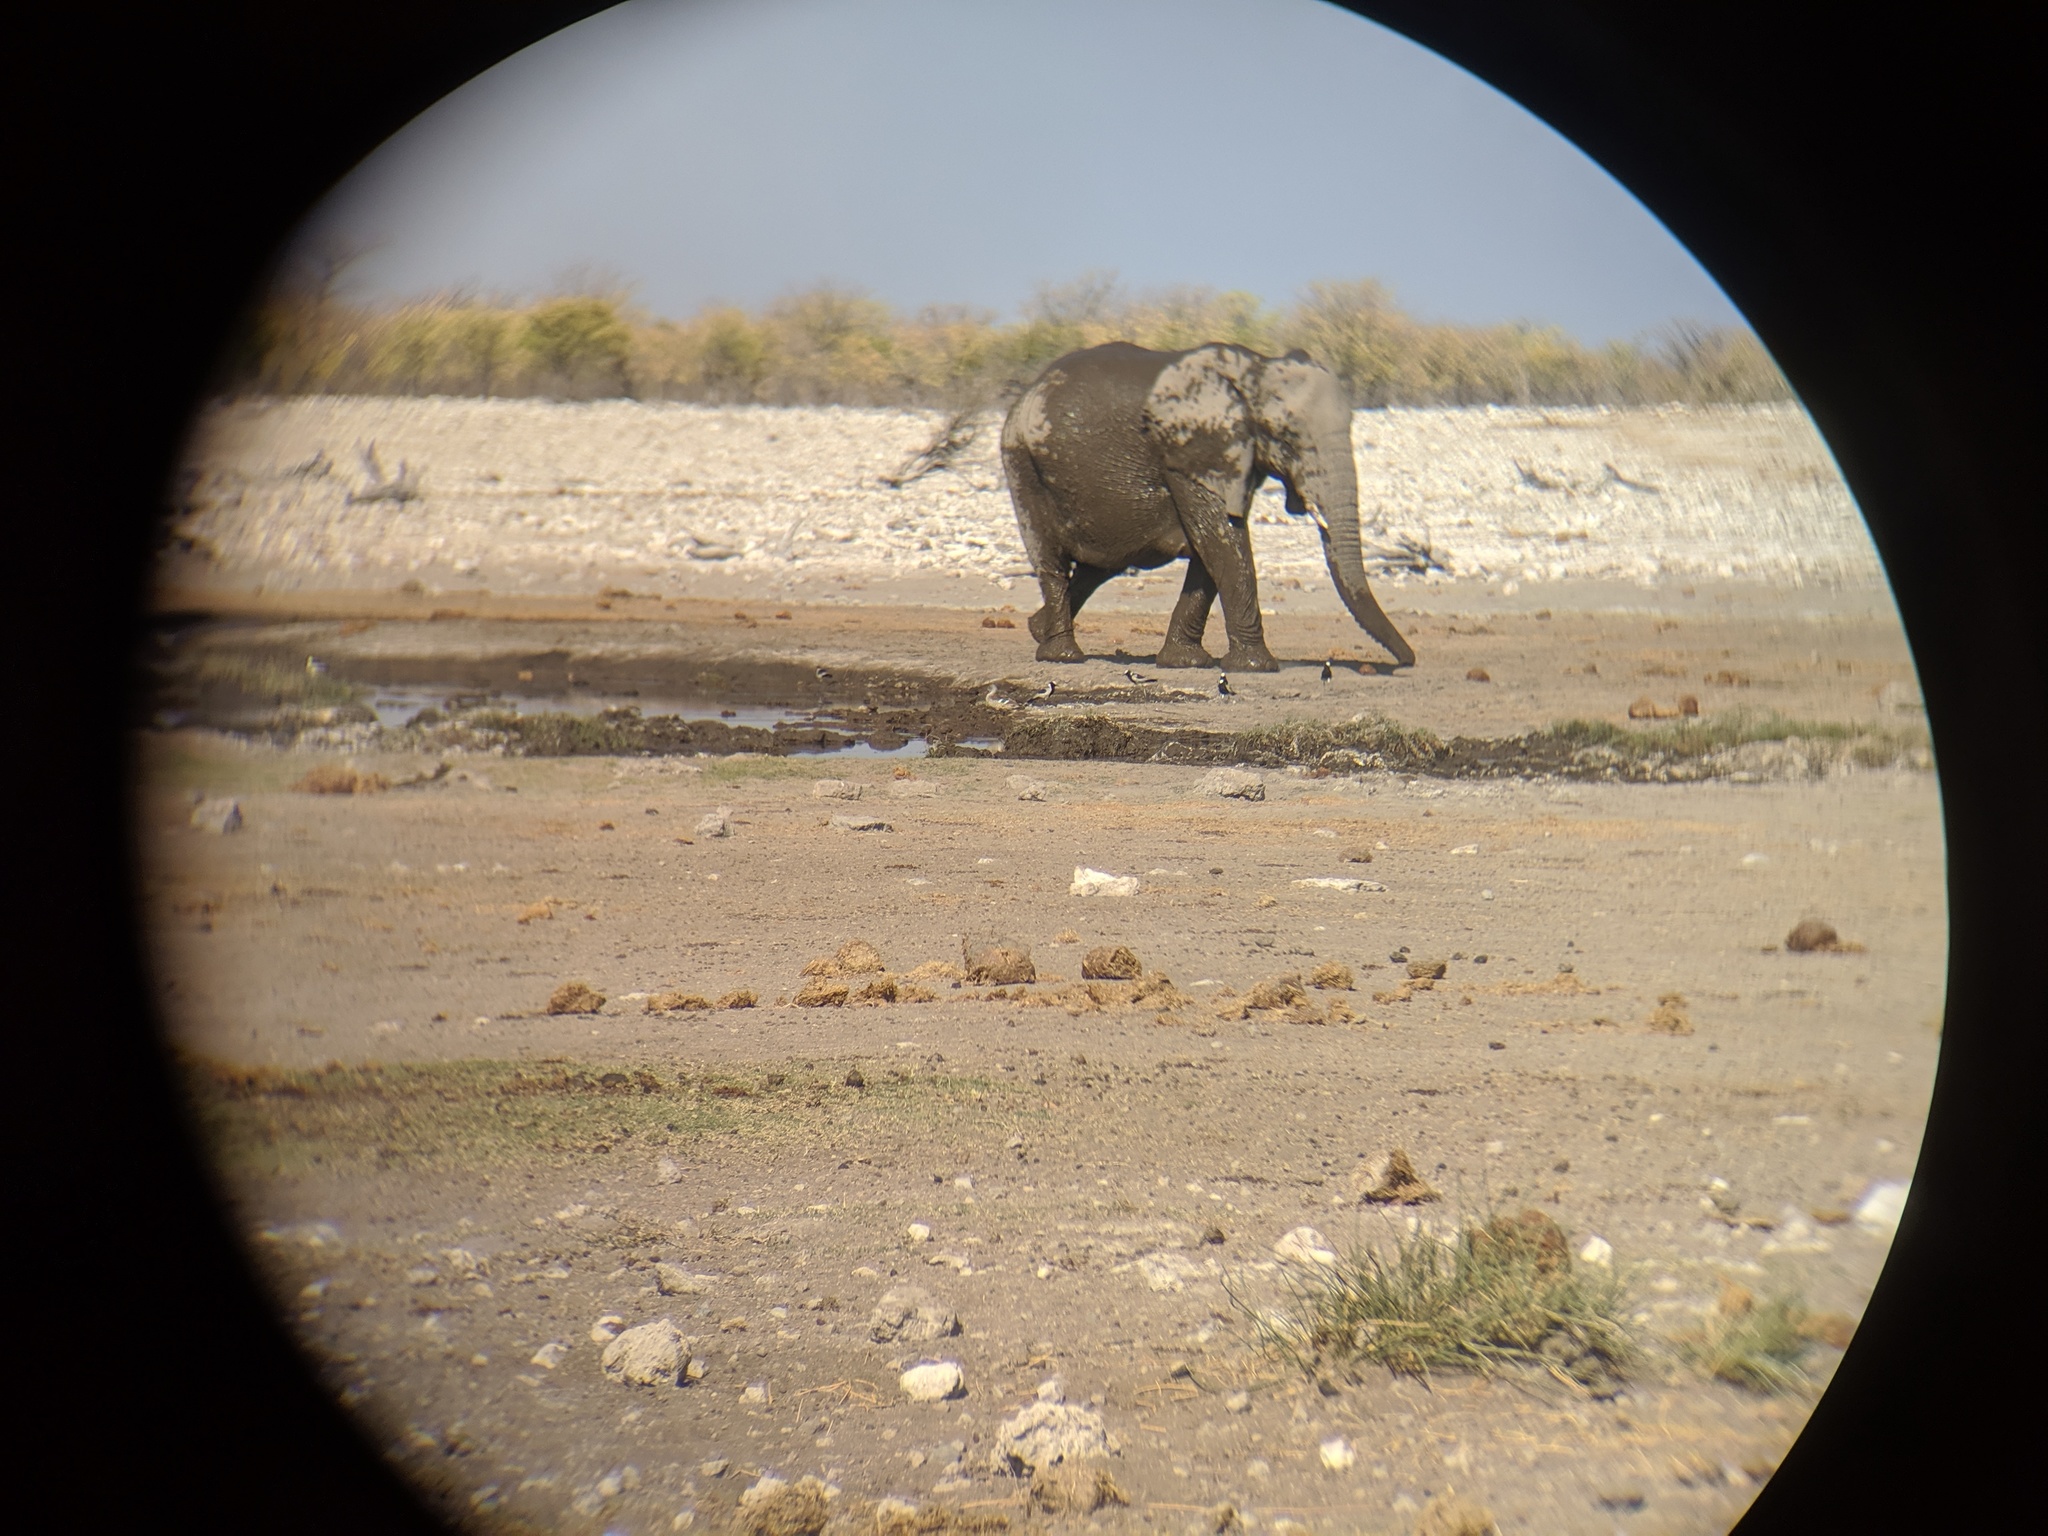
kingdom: Animalia
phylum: Chordata
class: Mammalia
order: Proboscidea
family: Elephantidae
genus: Loxodonta
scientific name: Loxodonta africana
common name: African elephant
